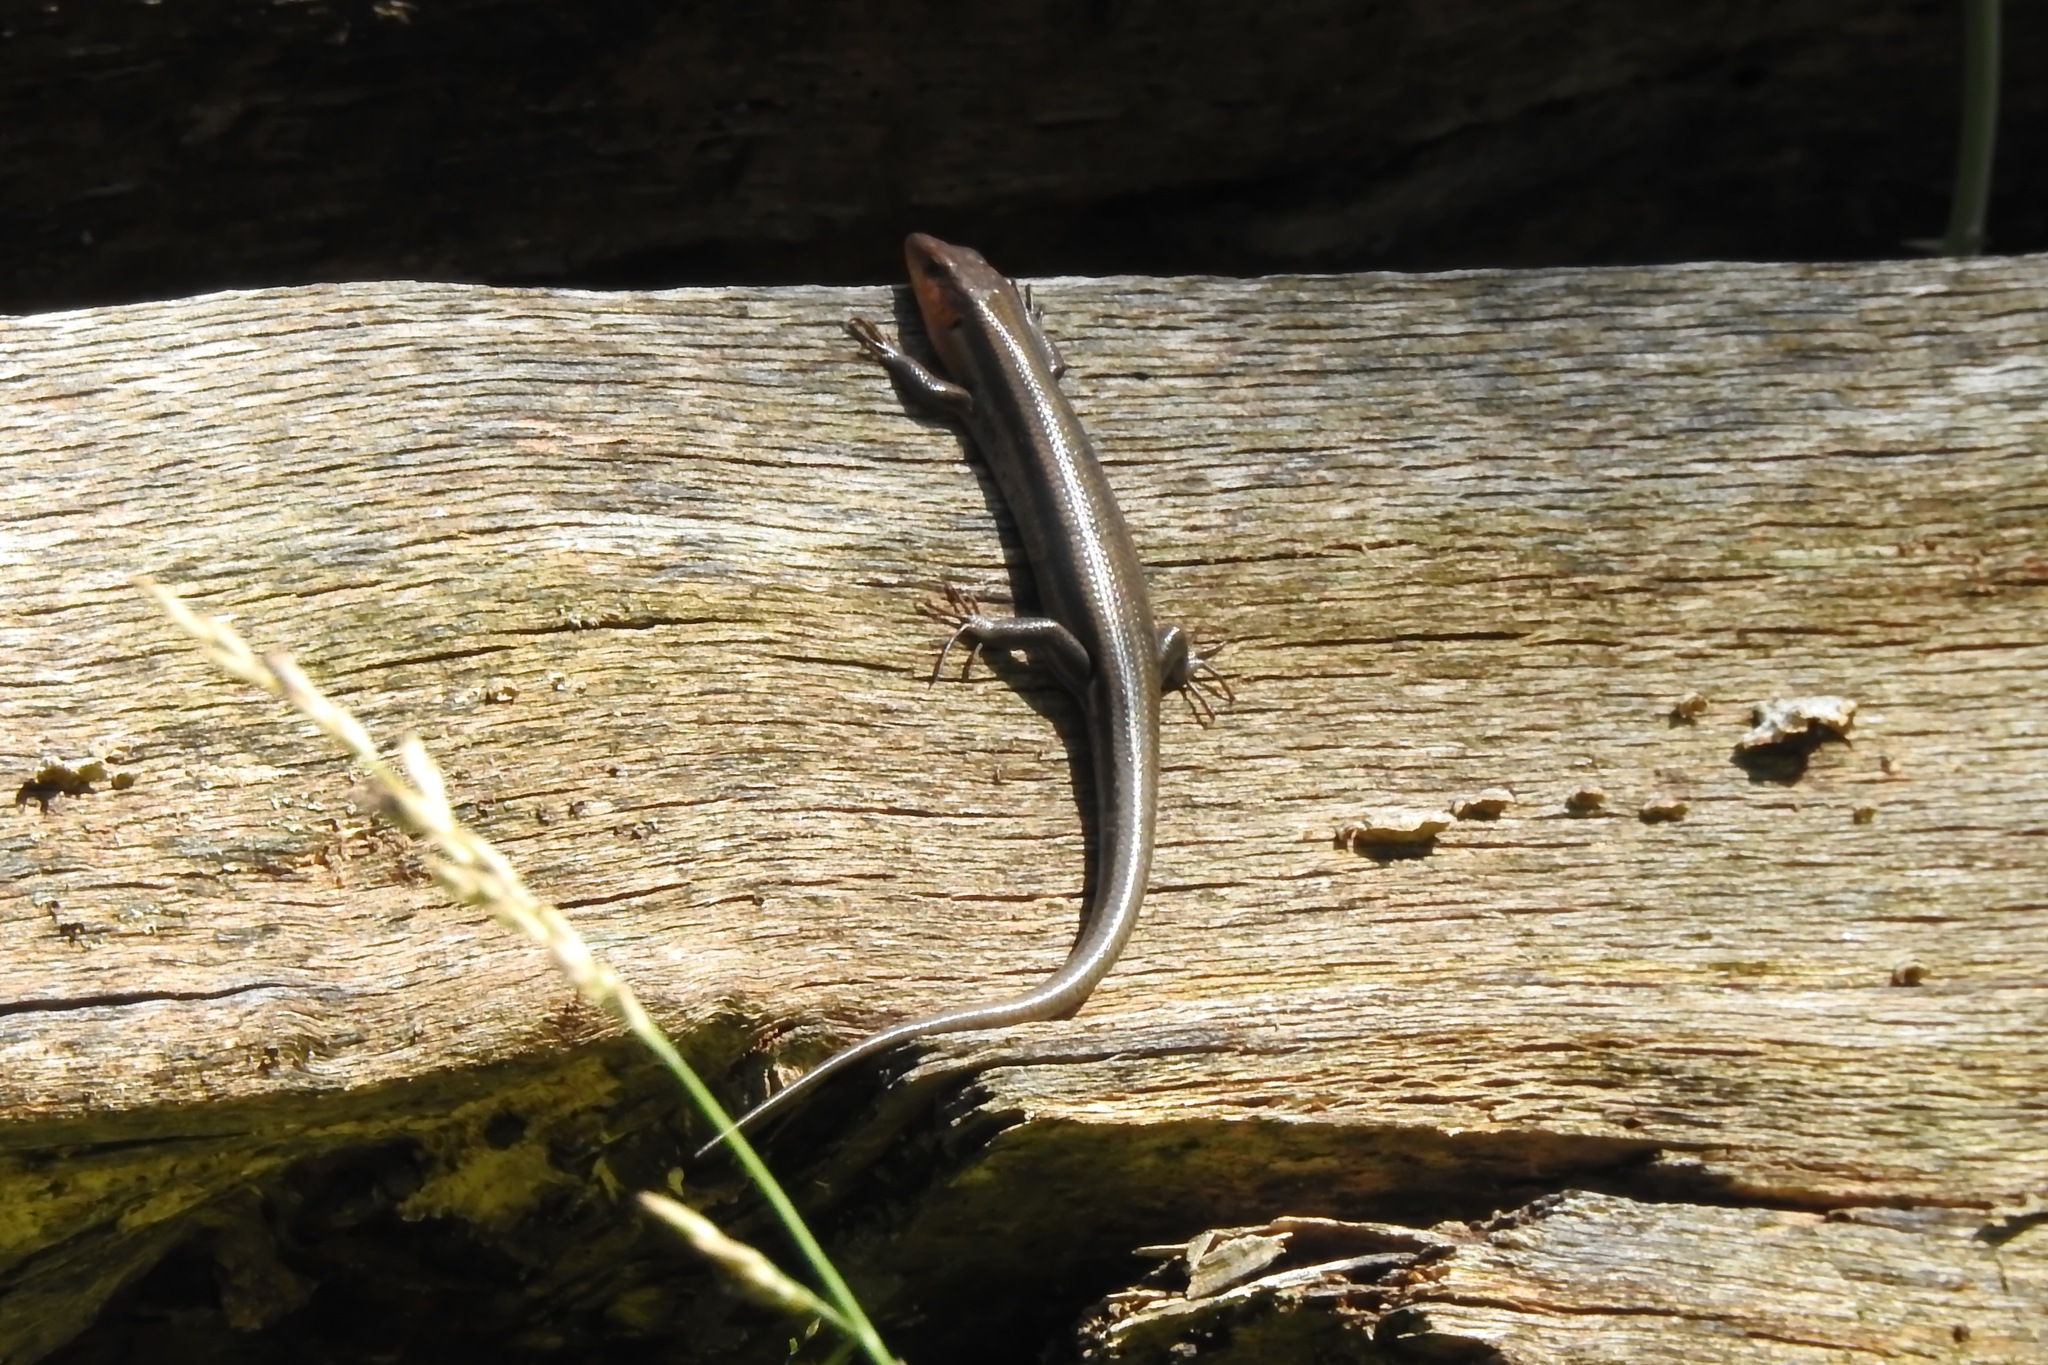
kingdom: Animalia
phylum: Chordata
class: Squamata
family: Scincidae
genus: Plestiodon
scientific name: Plestiodon fasciatus
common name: Five-lined skink
